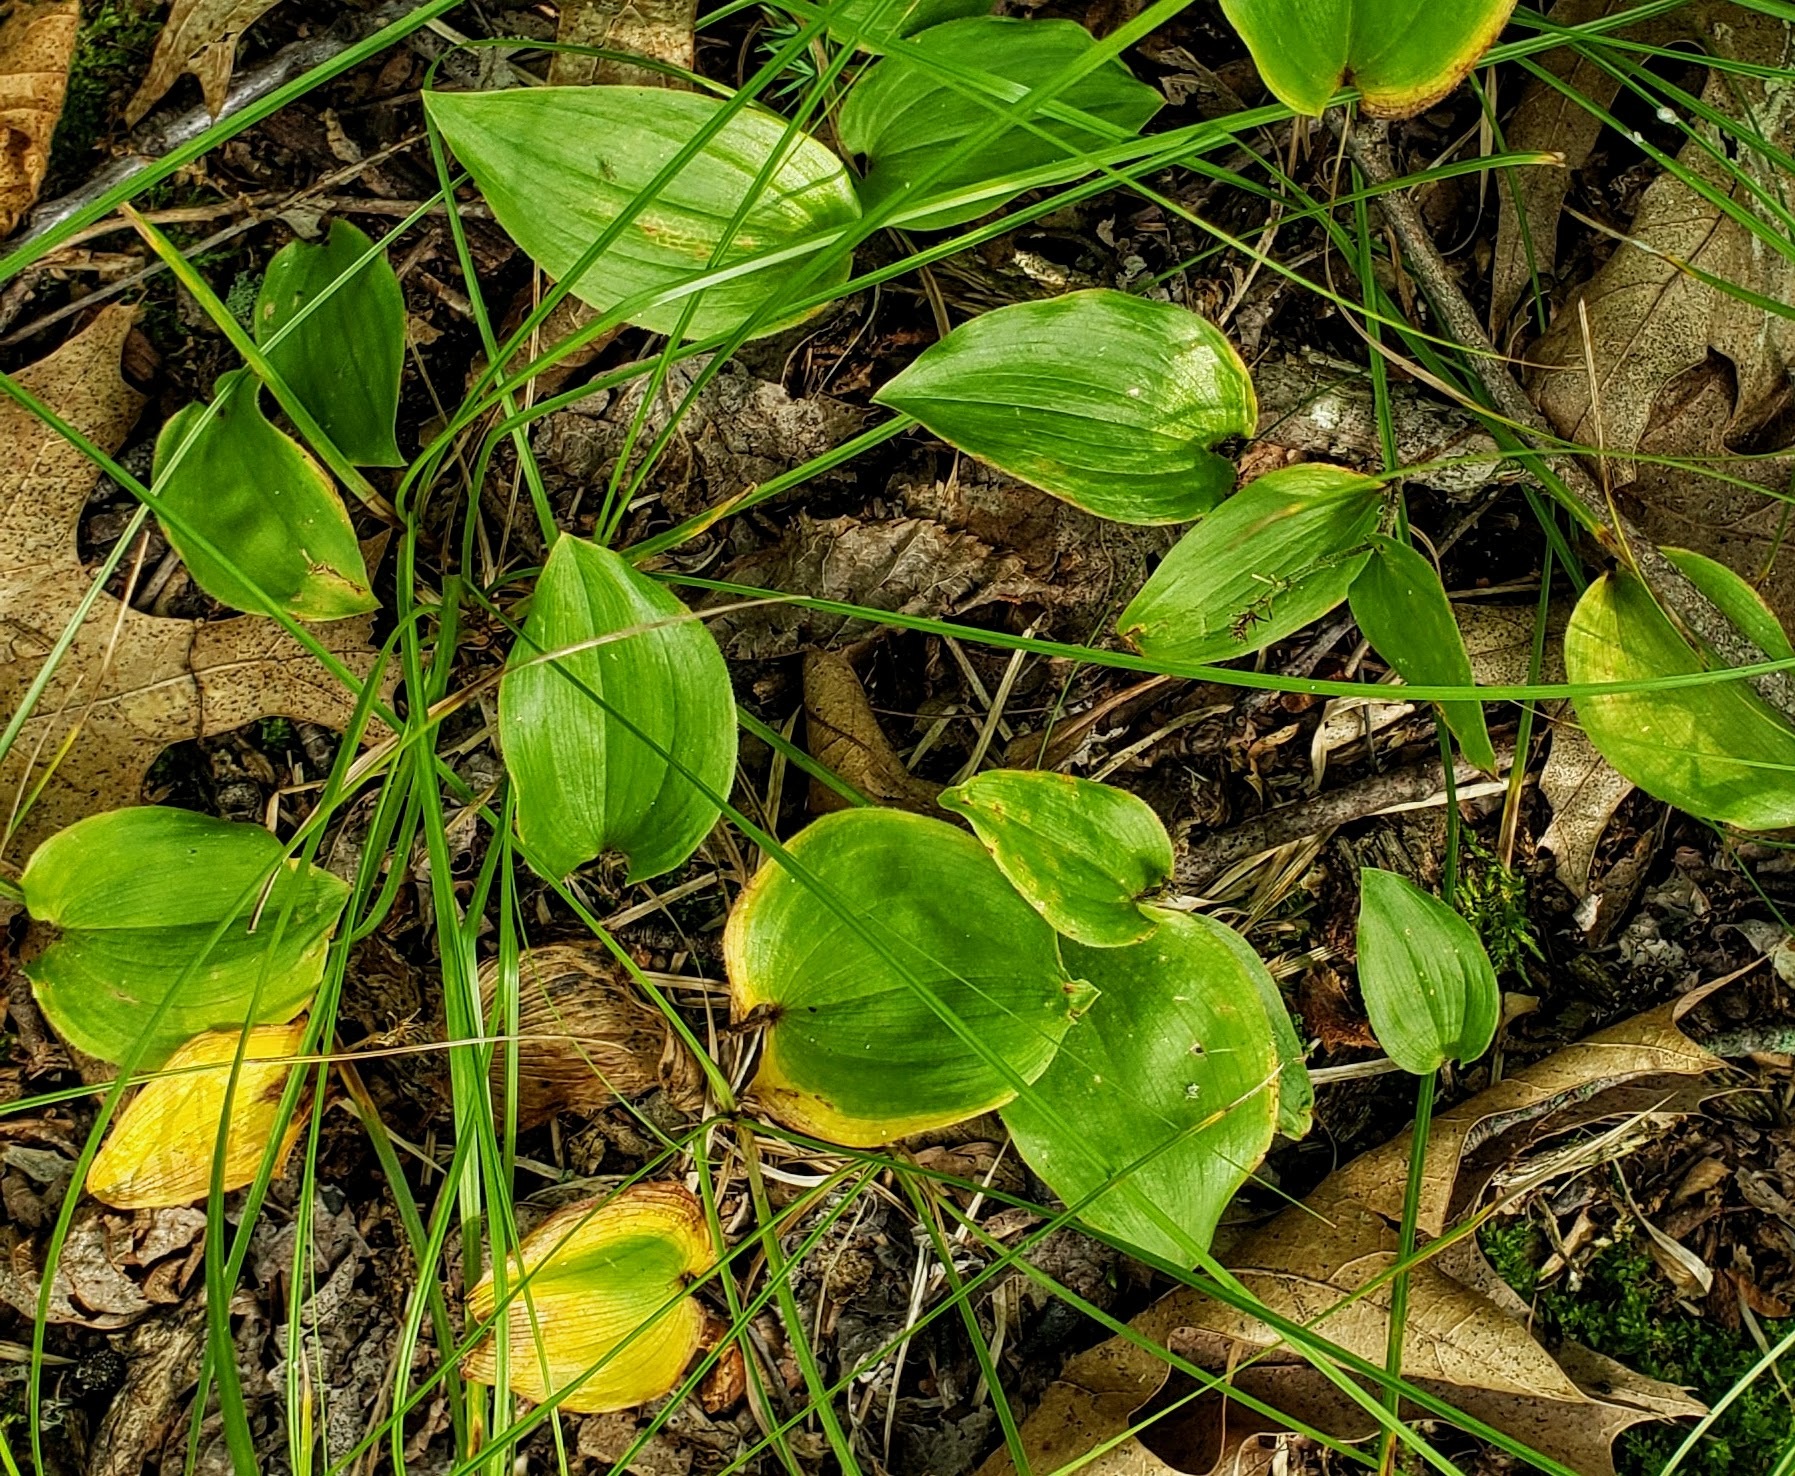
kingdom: Plantae
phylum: Tracheophyta
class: Liliopsida
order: Asparagales
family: Asparagaceae
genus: Maianthemum
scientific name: Maianthemum canadense
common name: False lily-of-the-valley
